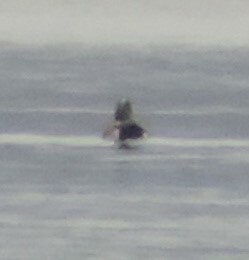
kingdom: Animalia
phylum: Chordata
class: Aves
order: Anseriformes
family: Anatidae
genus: Mareca
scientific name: Mareca americana
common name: American wigeon
